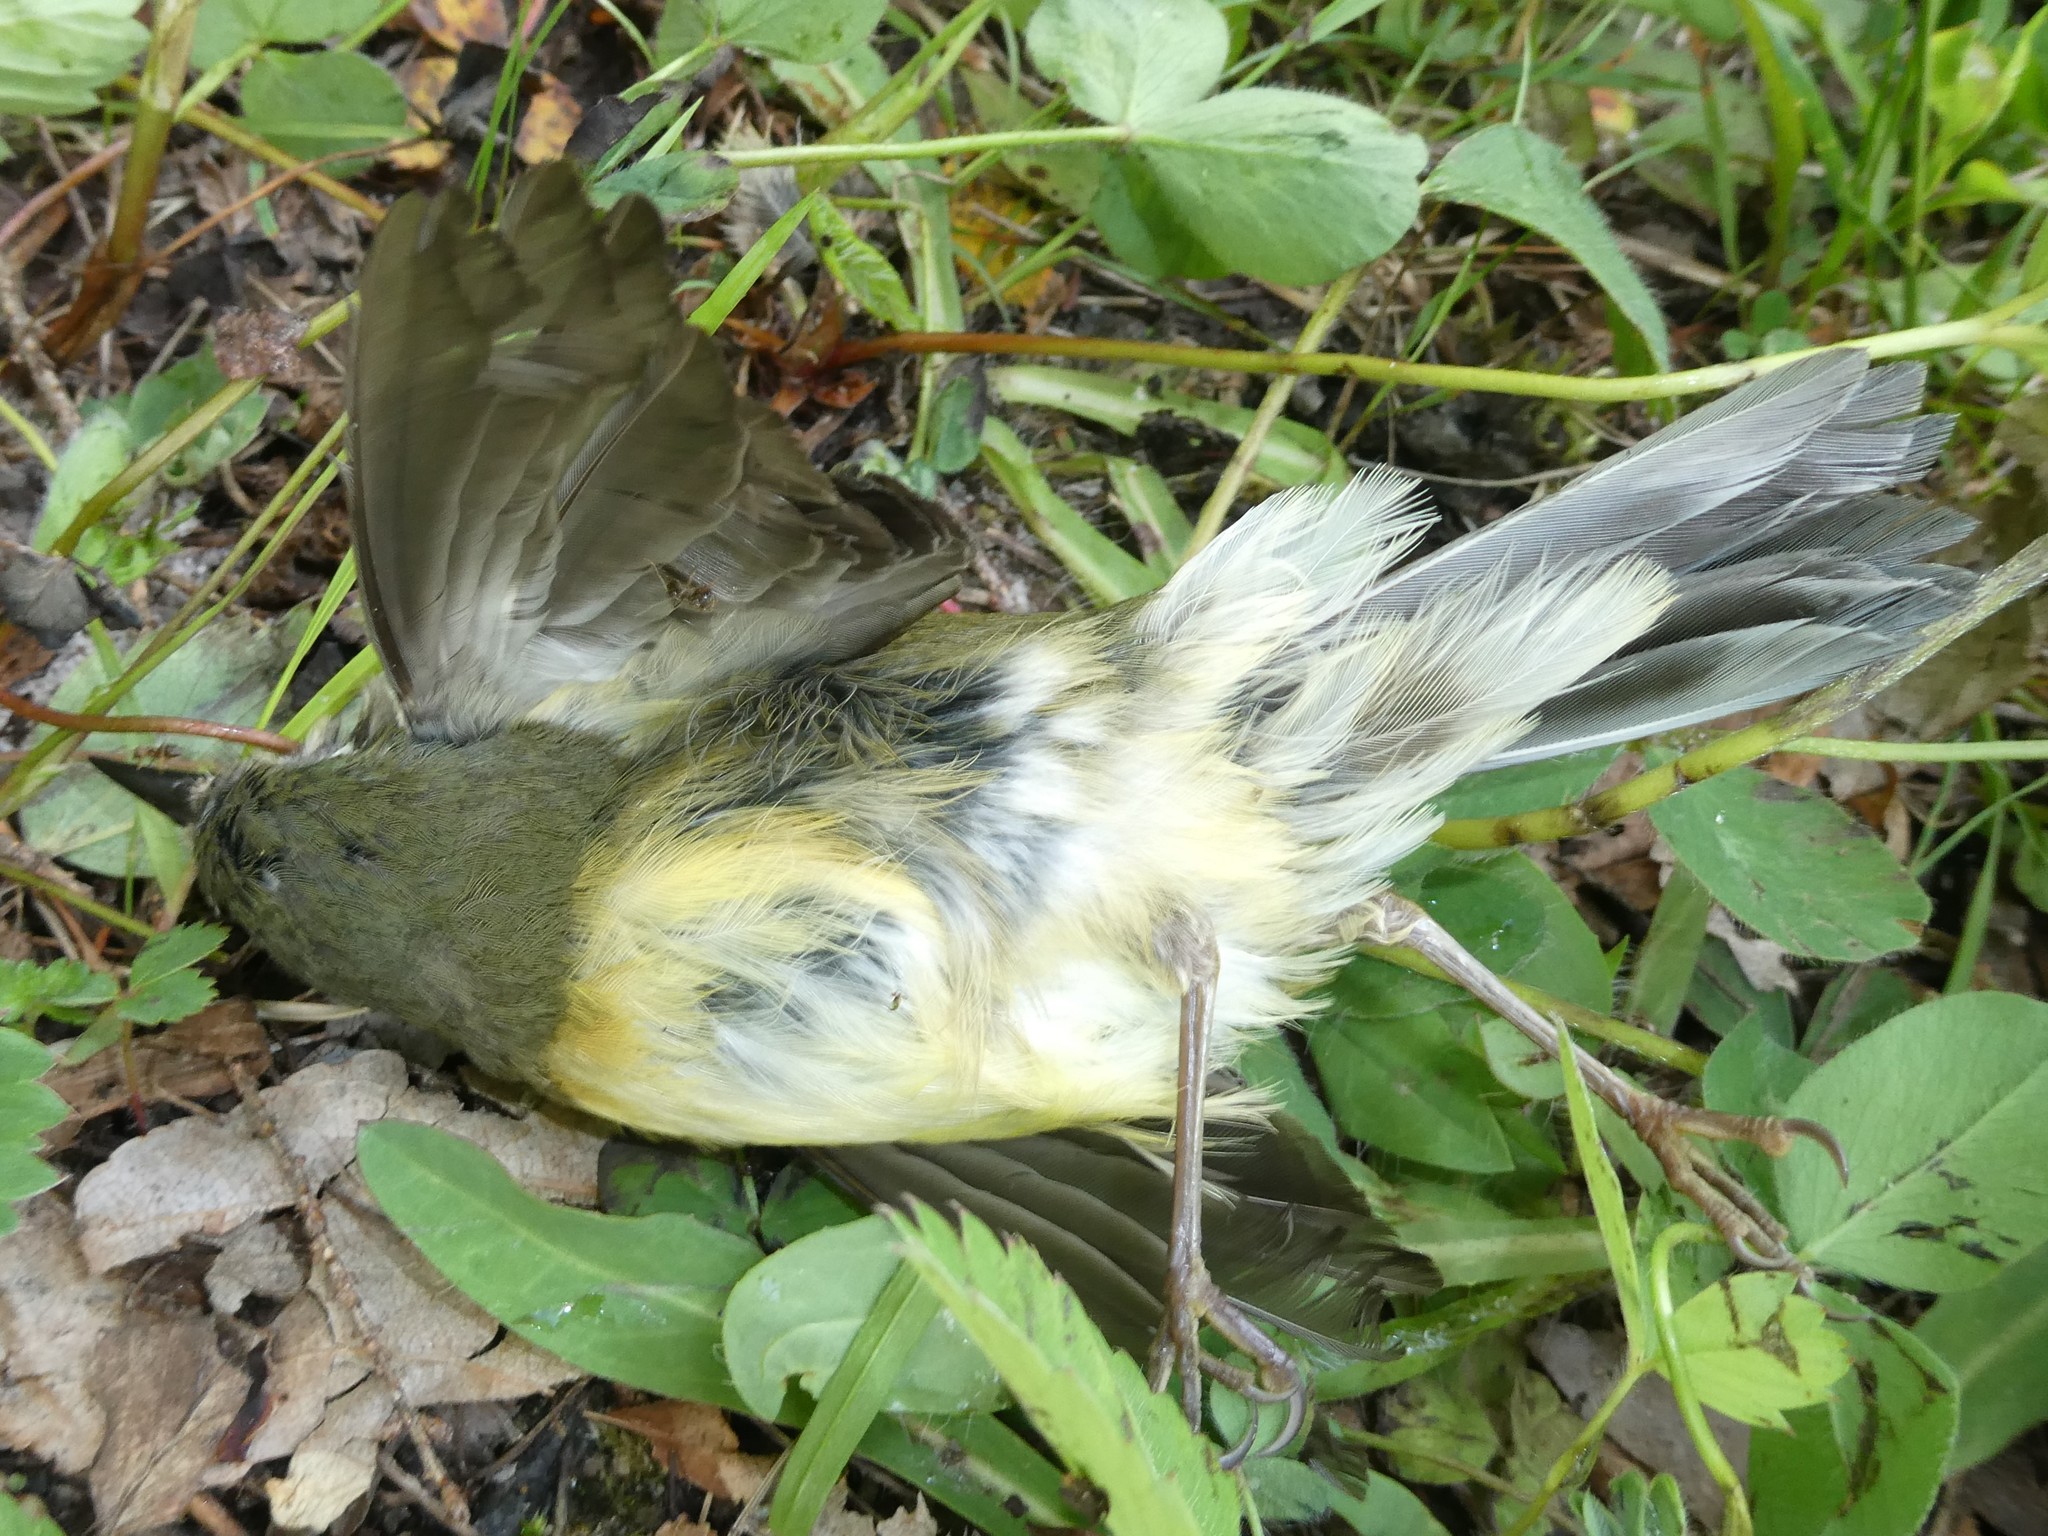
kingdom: Animalia
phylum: Chordata
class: Aves
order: Passeriformes
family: Parulidae
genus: Setophaga
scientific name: Setophaga caerulescens
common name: Black-throated blue warbler
